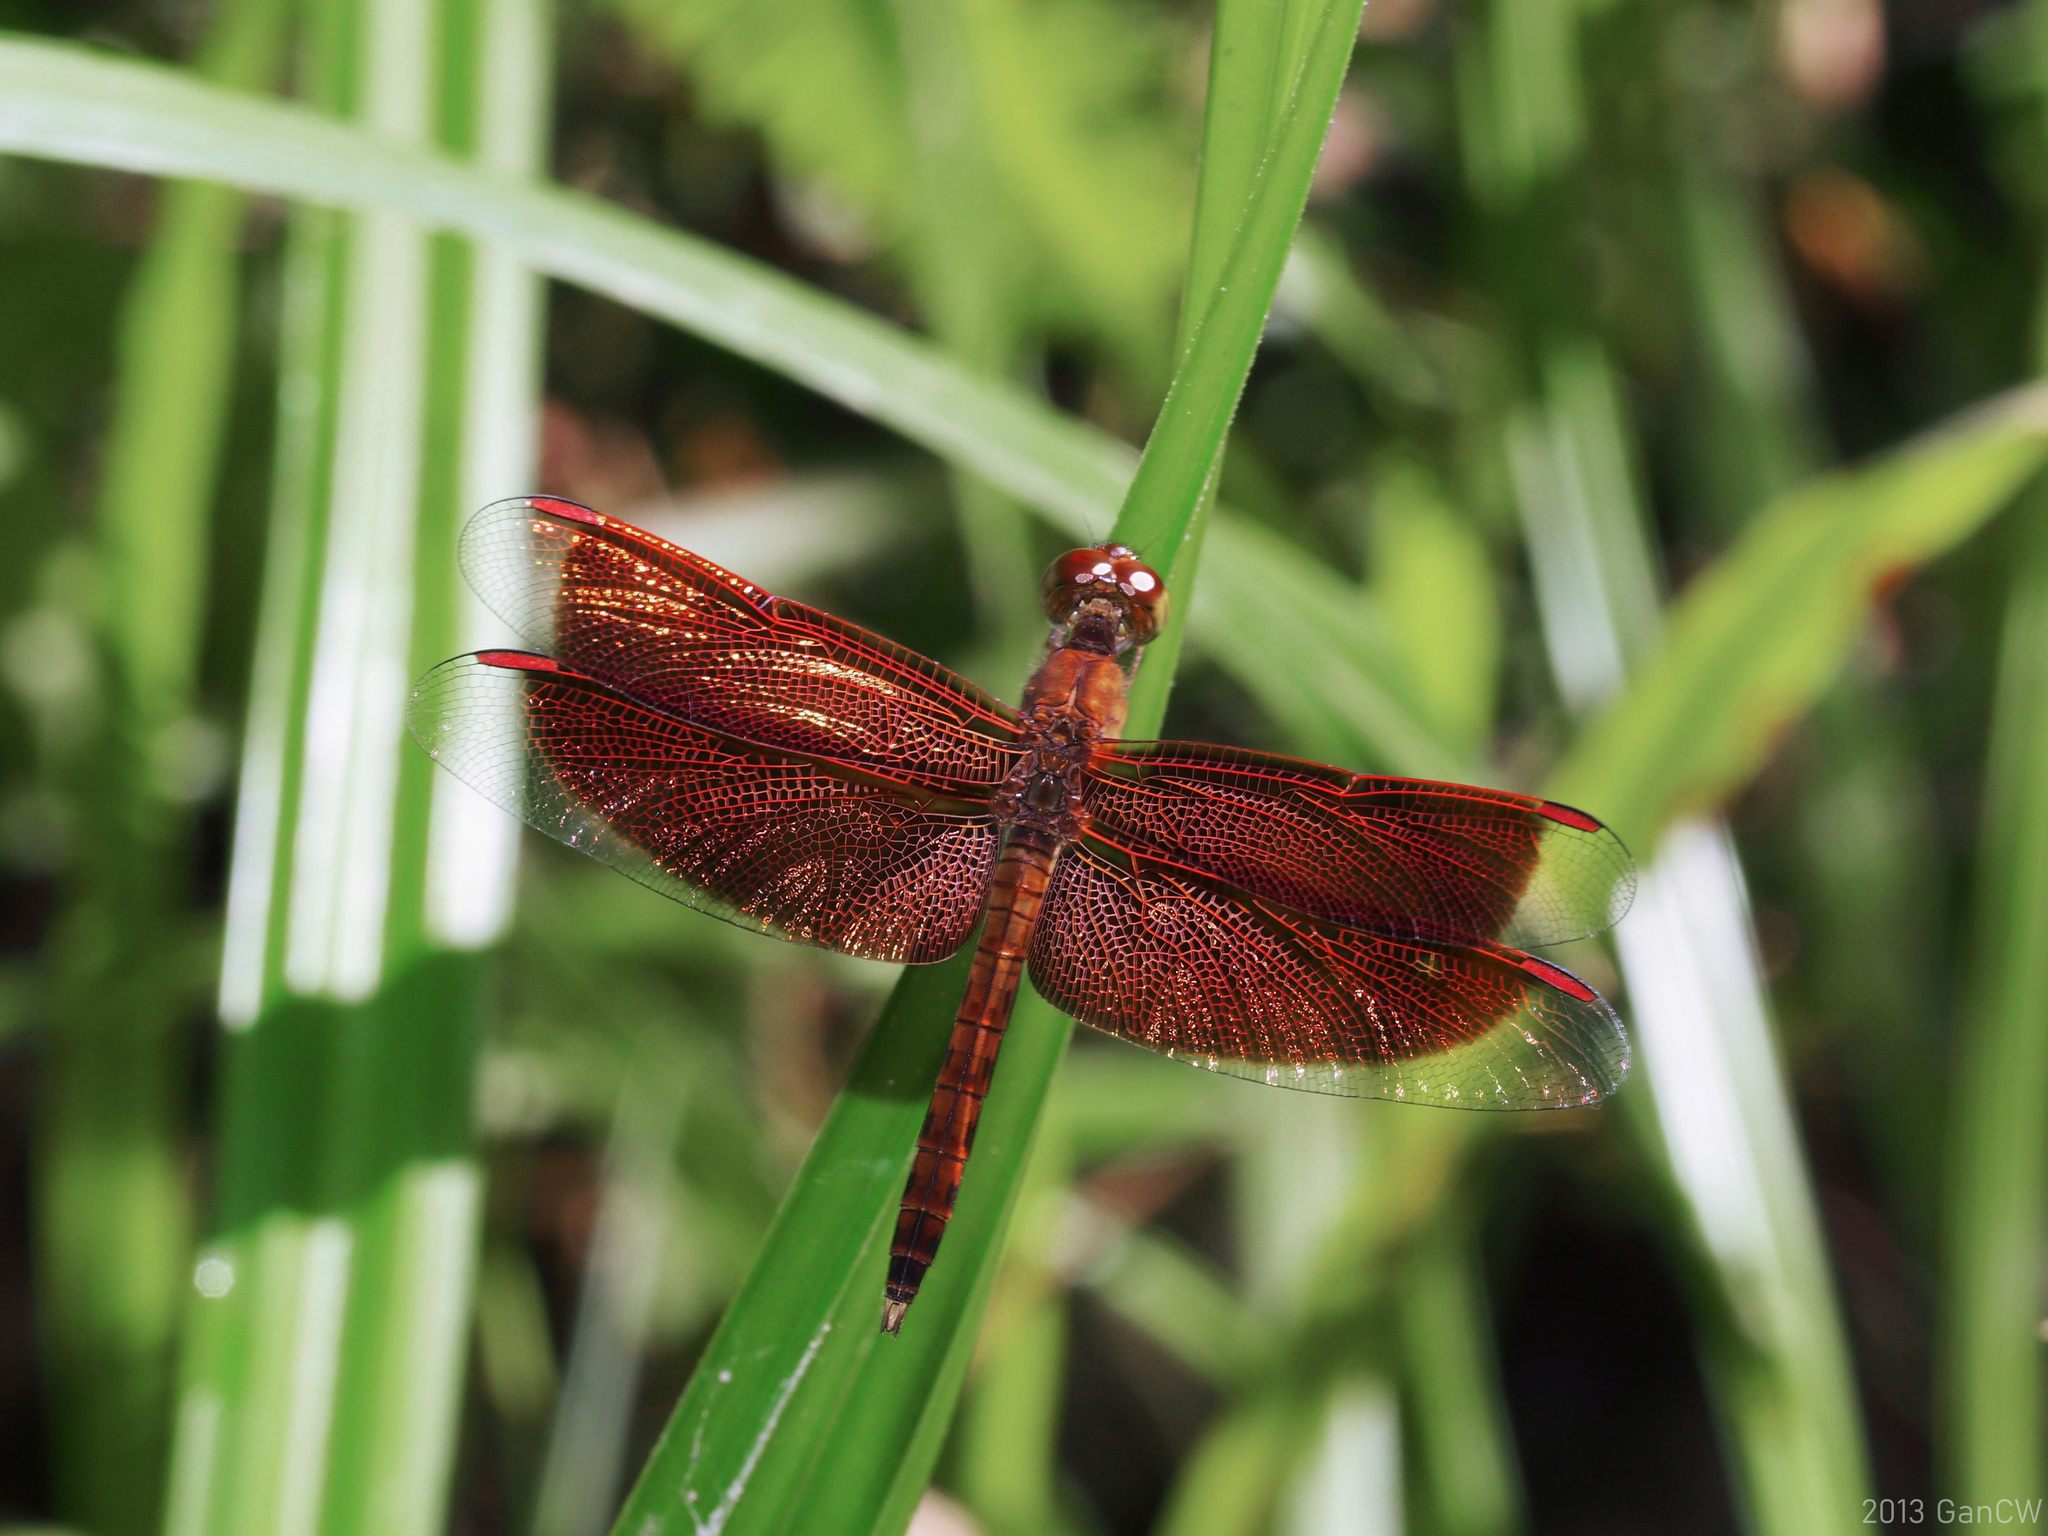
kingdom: Animalia
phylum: Arthropoda
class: Insecta
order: Odonata
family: Libellulidae
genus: Neurothemis
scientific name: Neurothemis fluctuans
